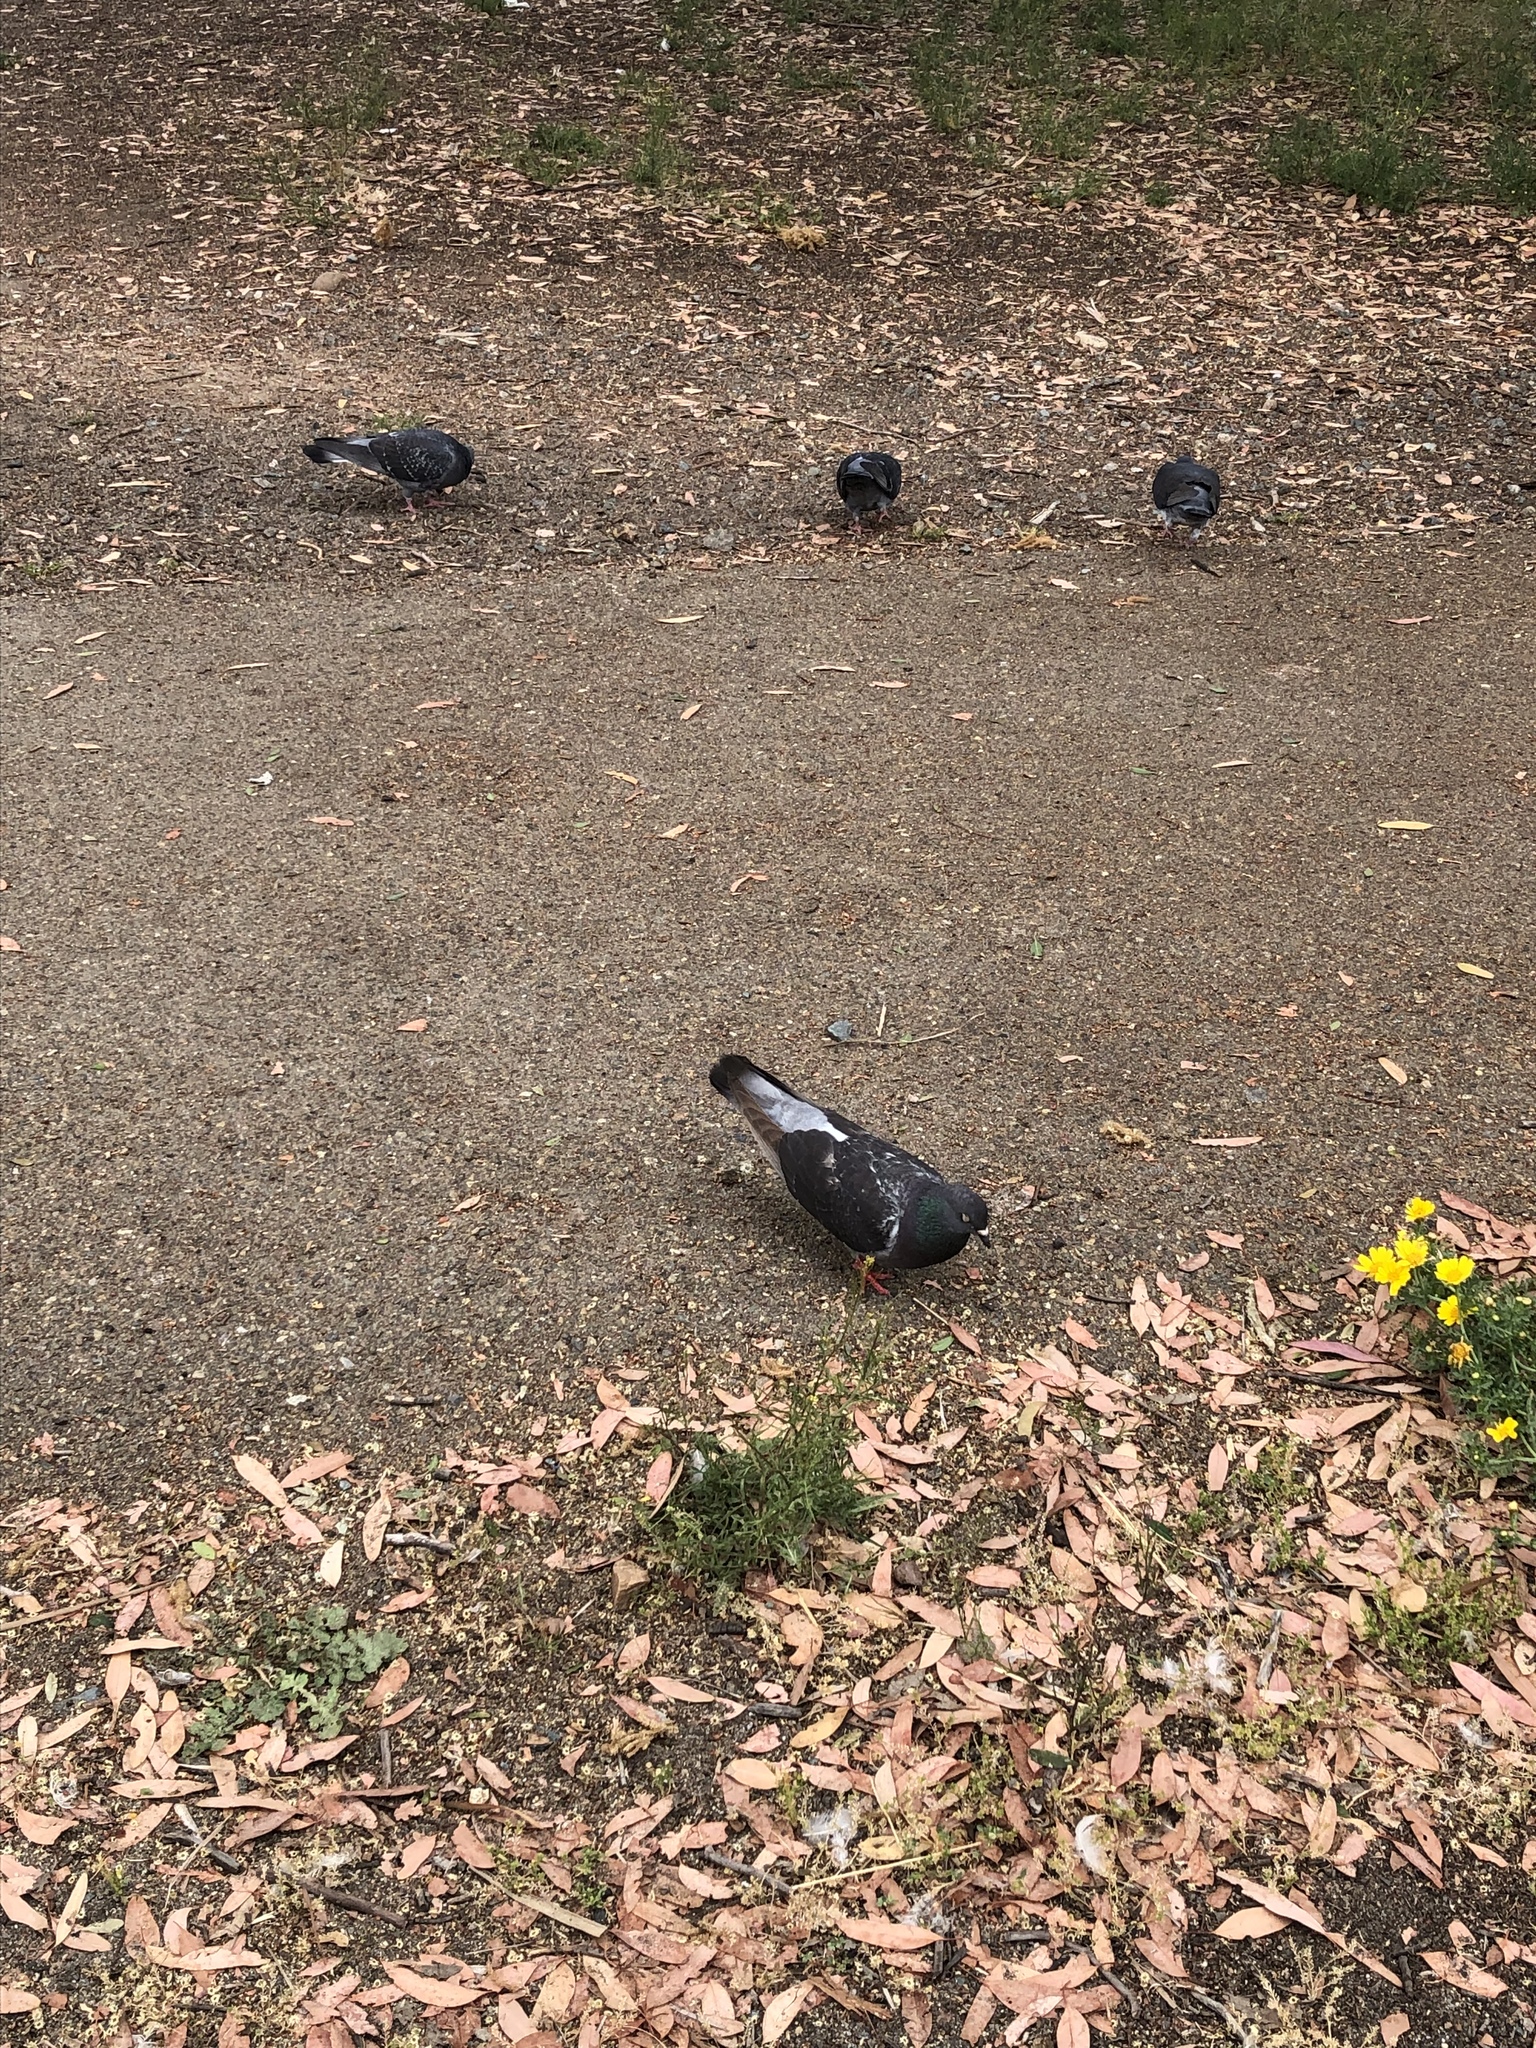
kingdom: Animalia
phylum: Chordata
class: Aves
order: Columbiformes
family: Columbidae
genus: Columba
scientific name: Columba livia
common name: Rock pigeon
